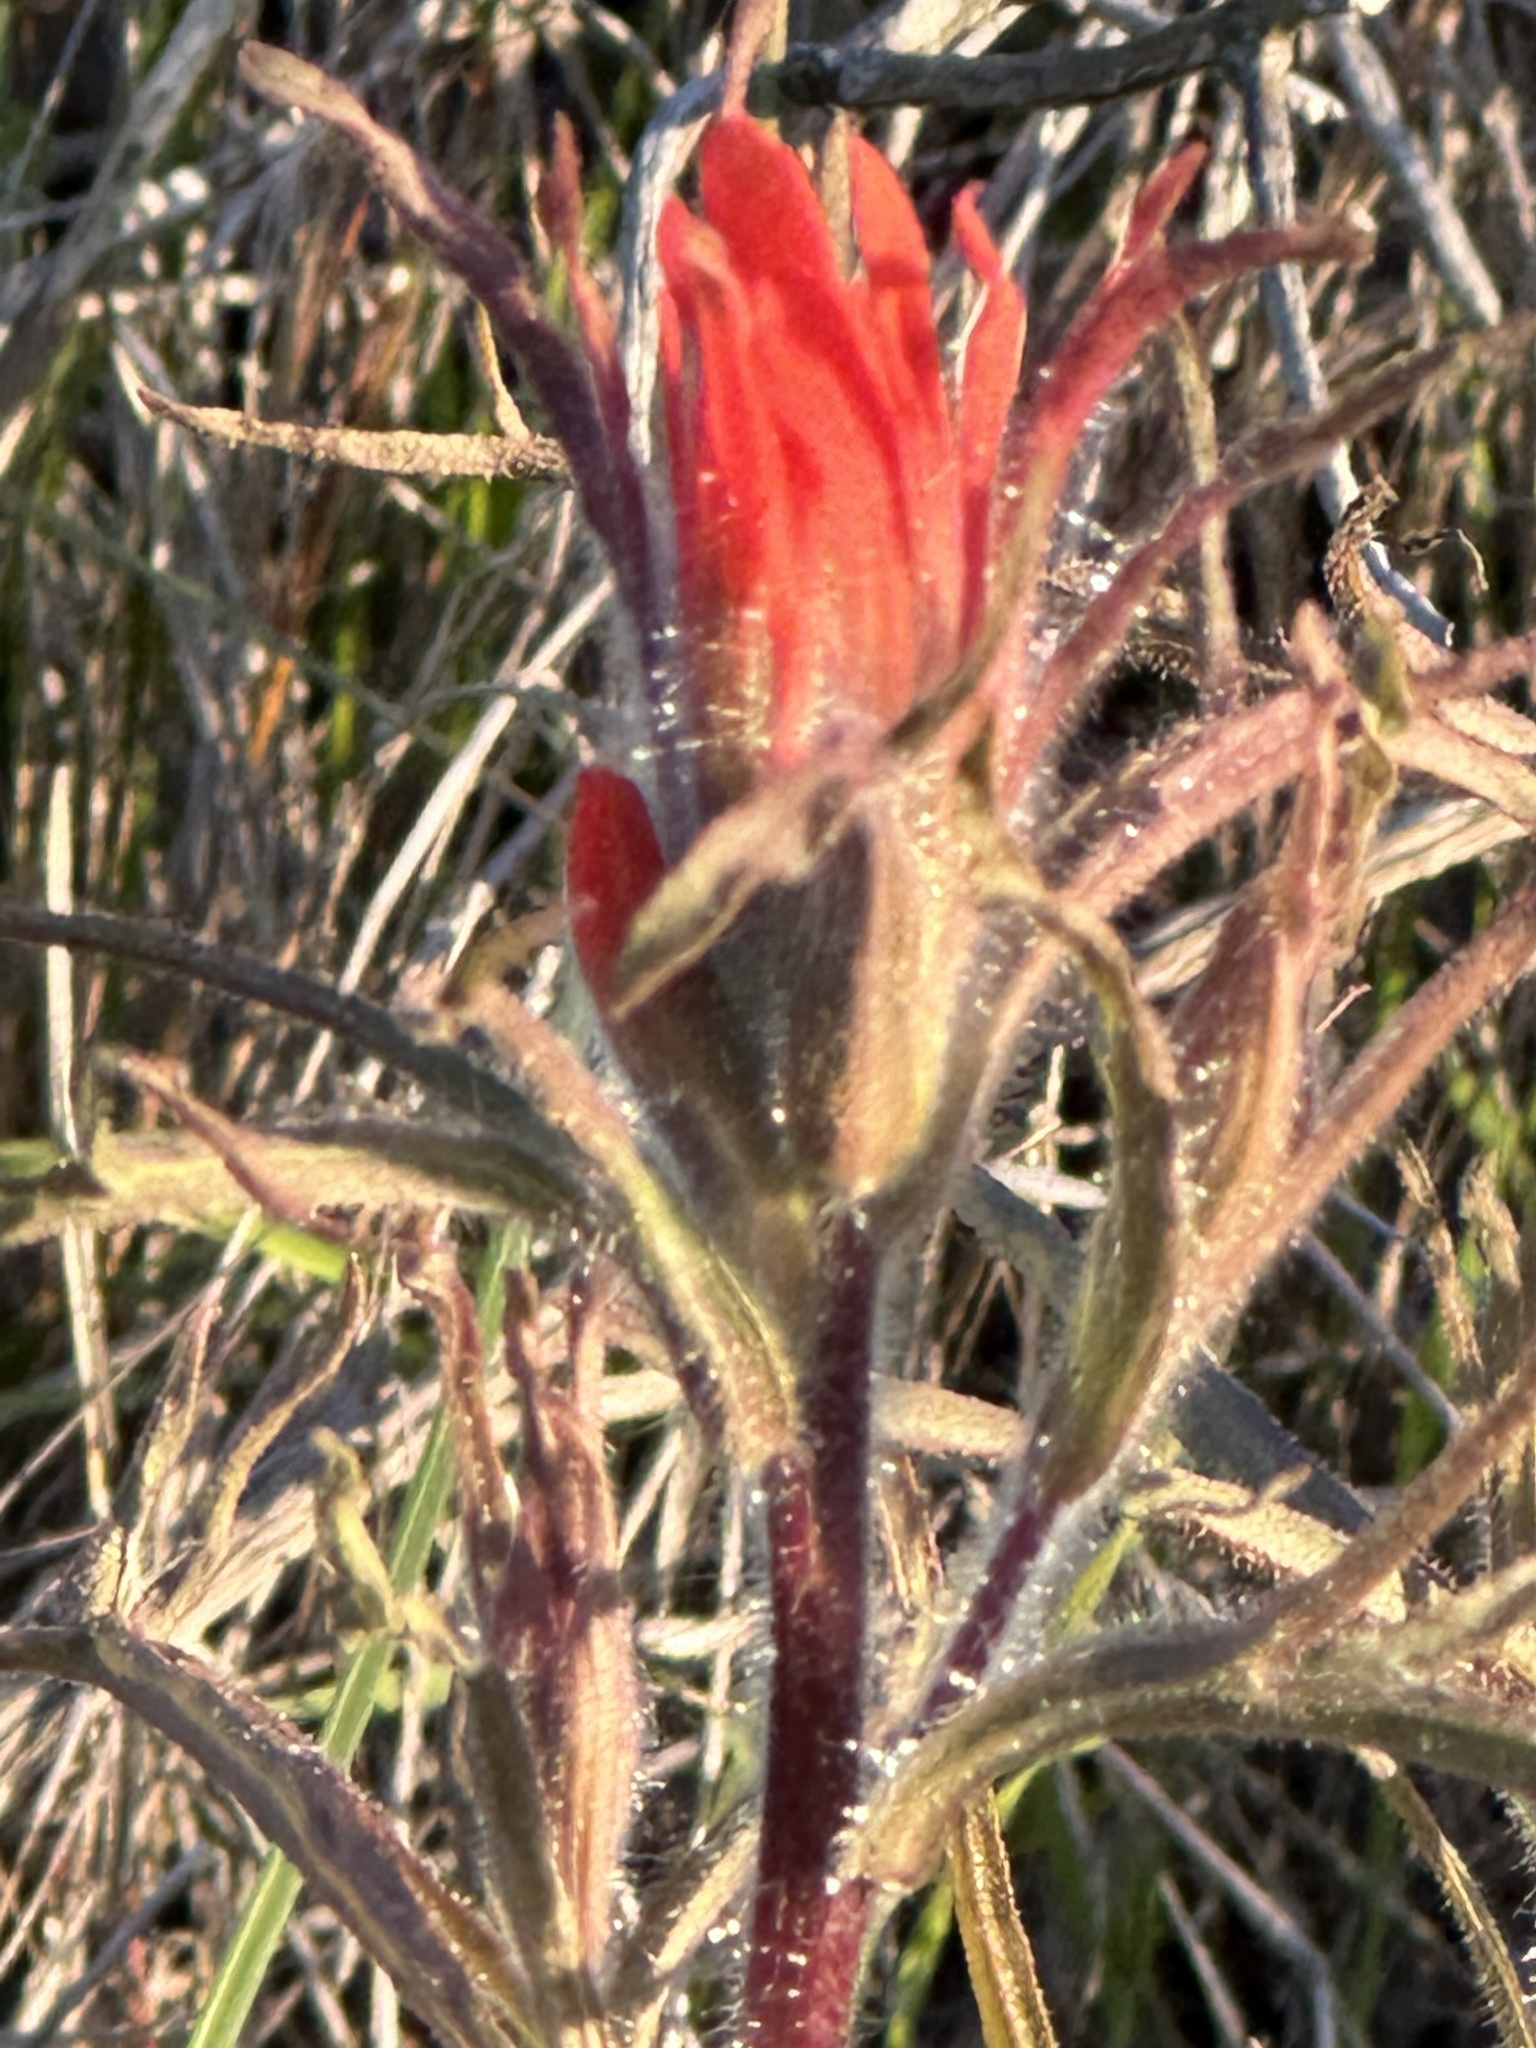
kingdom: Plantae
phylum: Tracheophyta
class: Magnoliopsida
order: Lamiales
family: Orobanchaceae
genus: Castilleja
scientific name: Castilleja affinis
